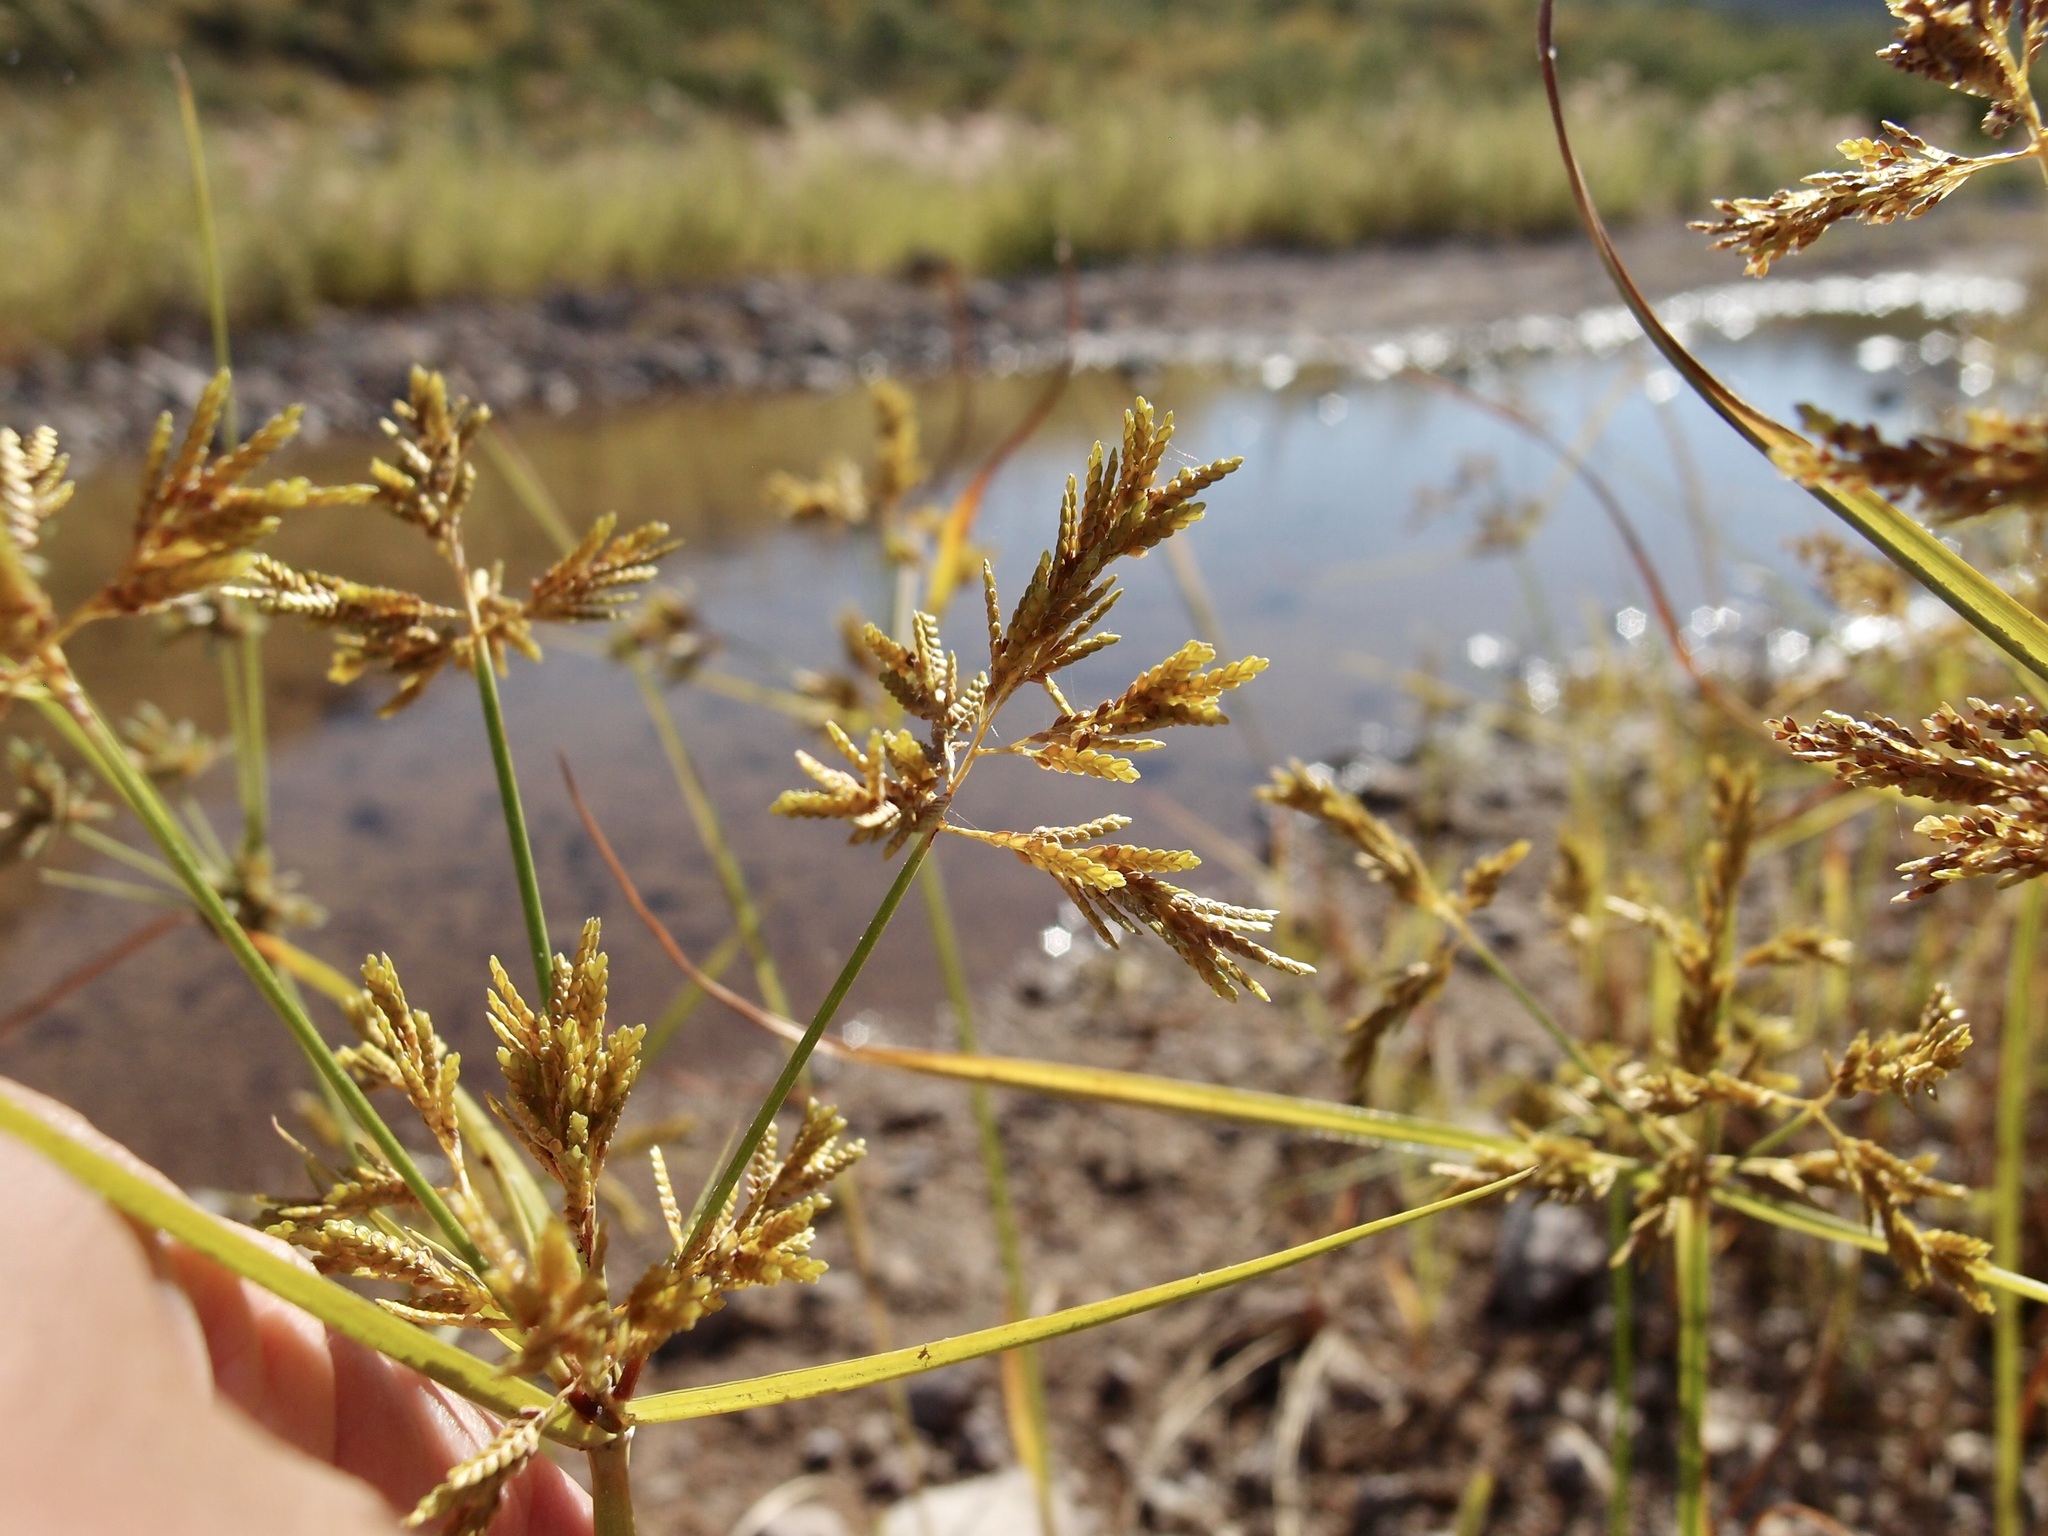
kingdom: Plantae
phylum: Tracheophyta
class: Liliopsida
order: Poales
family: Cyperaceae
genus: Cyperus
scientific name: Cyperus iria
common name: Ricefield flatsedge
